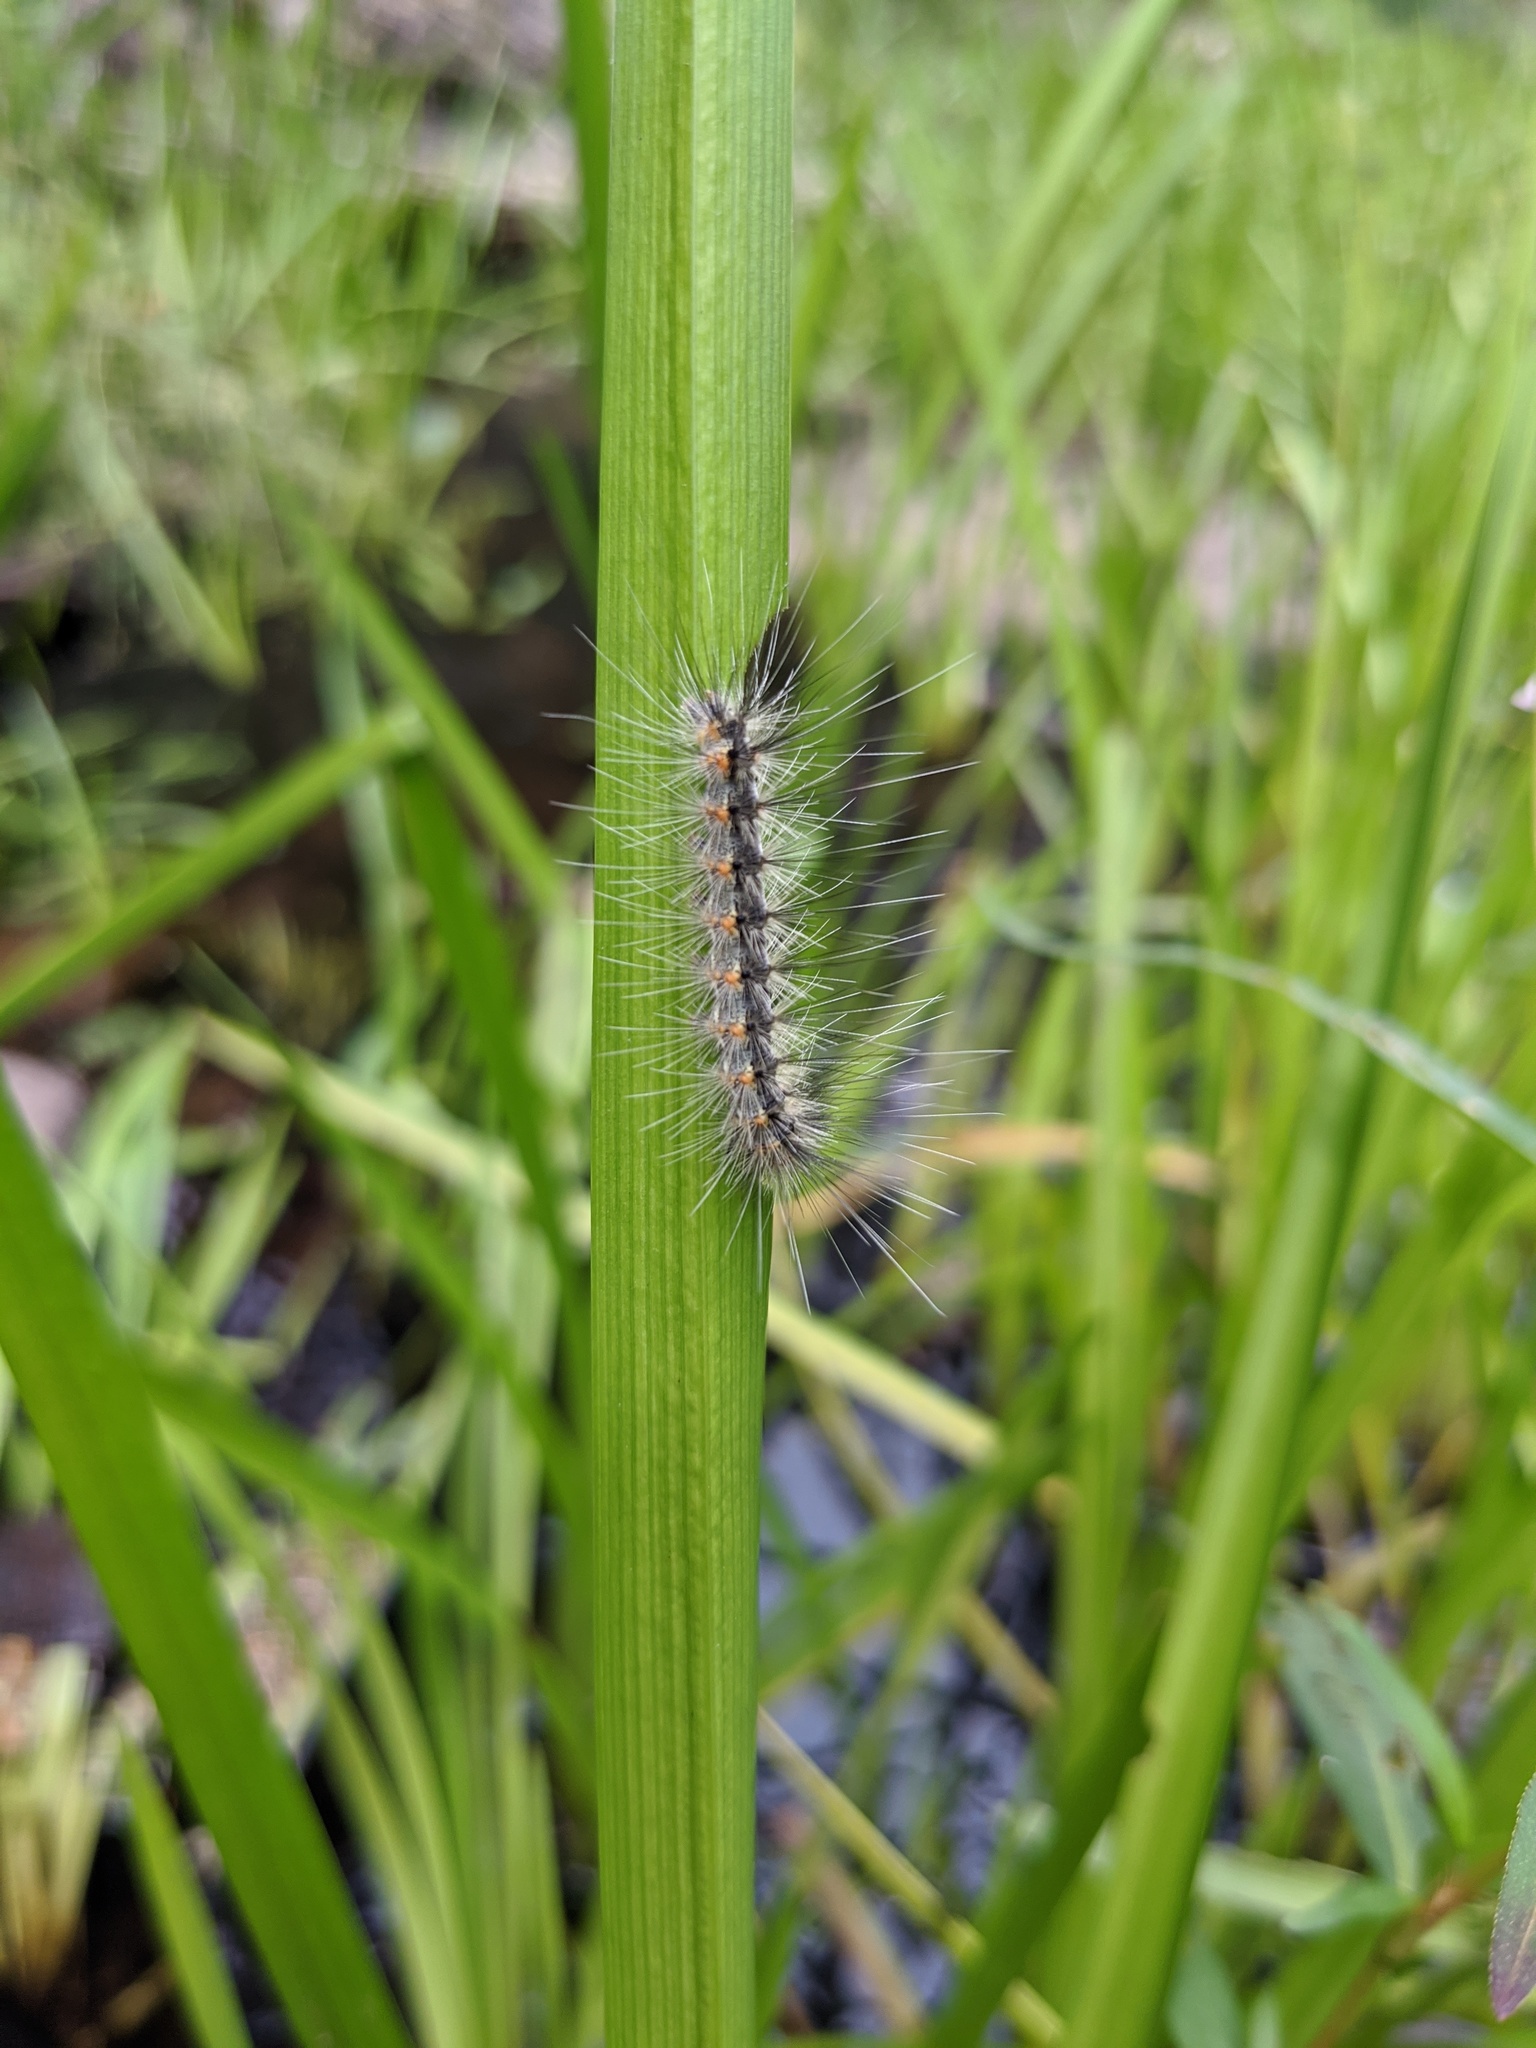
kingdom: Animalia
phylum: Arthropoda
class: Insecta
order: Lepidoptera
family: Erebidae
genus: Hyphantria
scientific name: Hyphantria cunea
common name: American white moth
